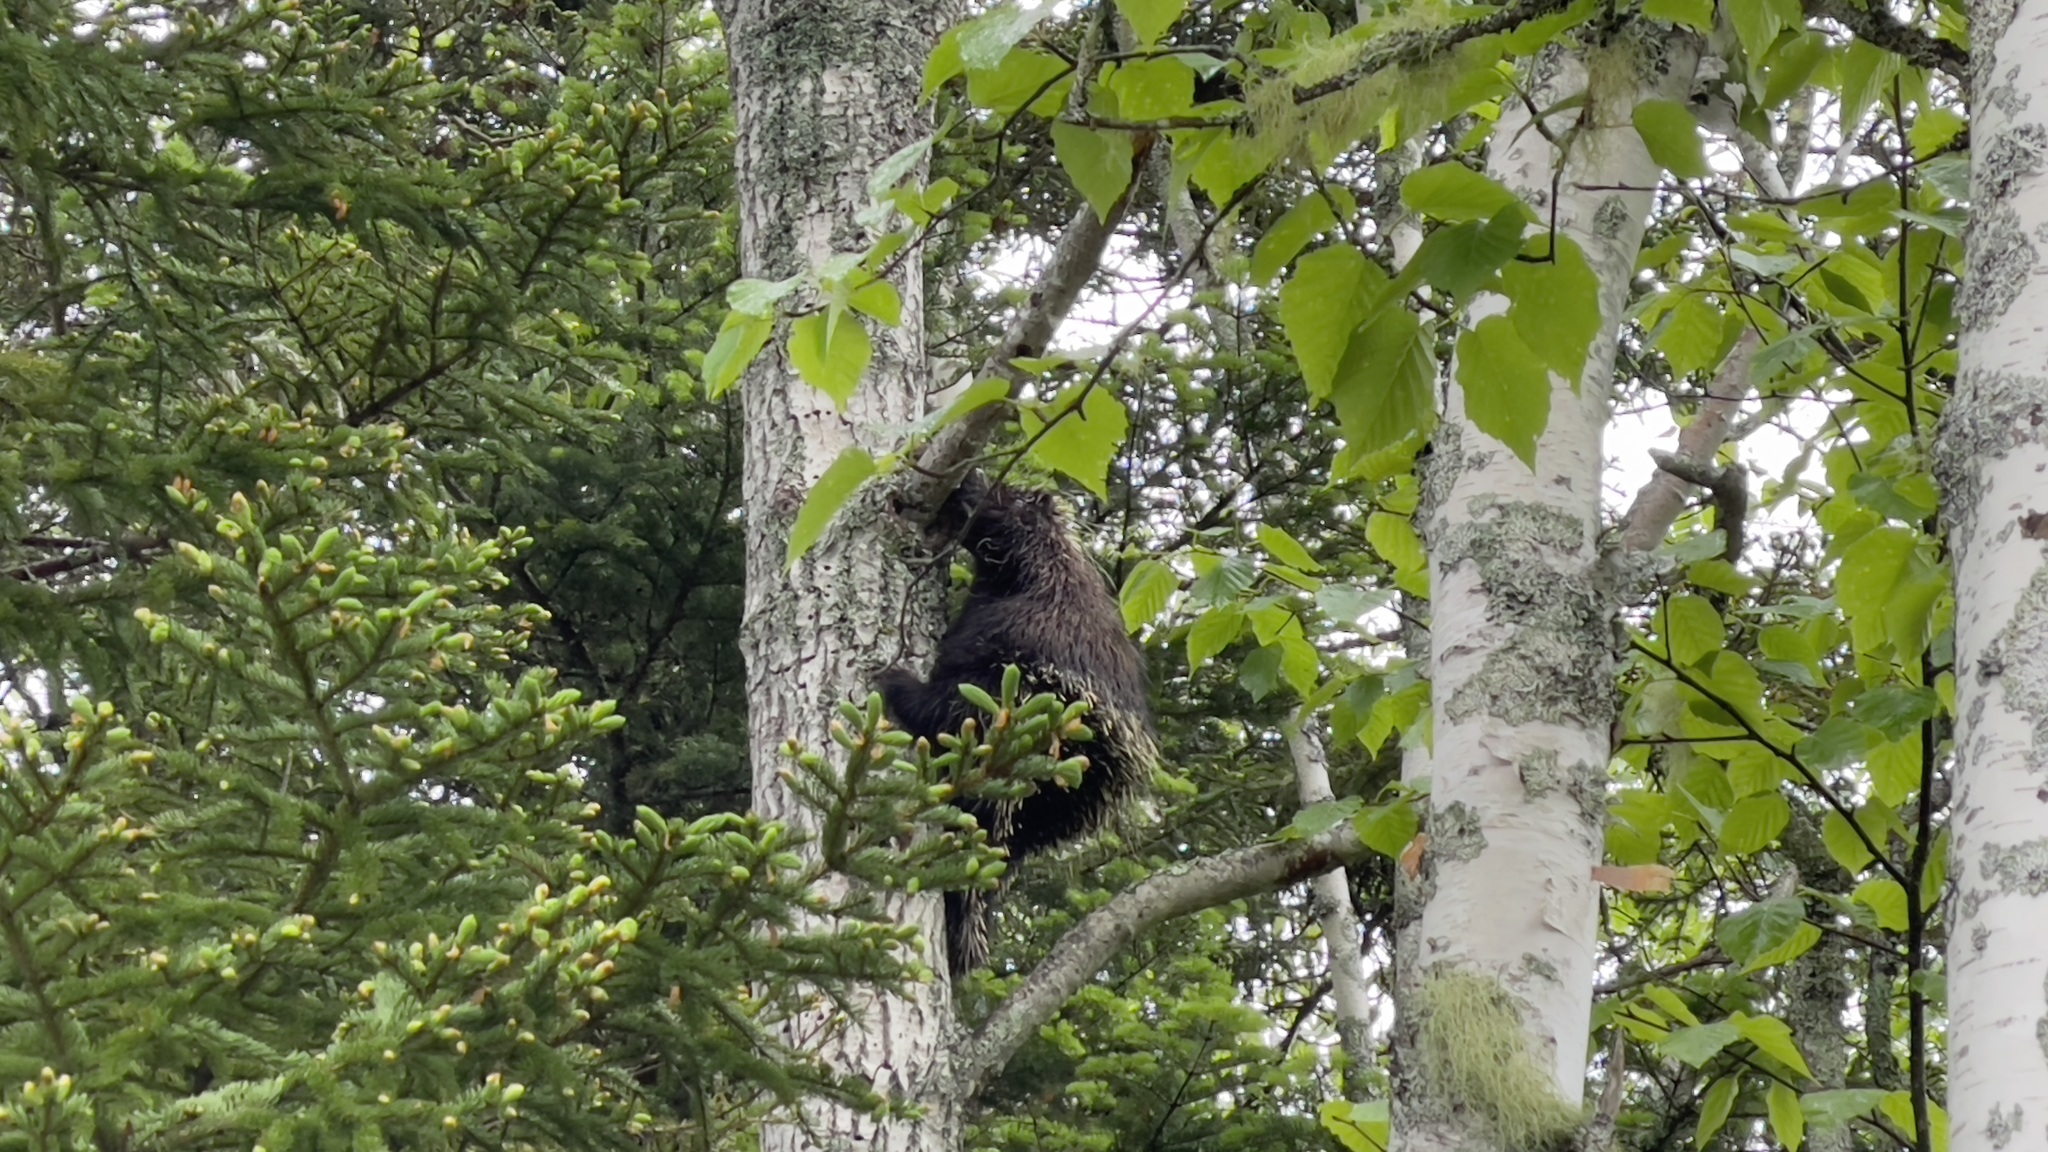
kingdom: Animalia
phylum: Chordata
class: Mammalia
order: Rodentia
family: Erethizontidae
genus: Erethizon
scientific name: Erethizon dorsatus
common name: North american porcupine
